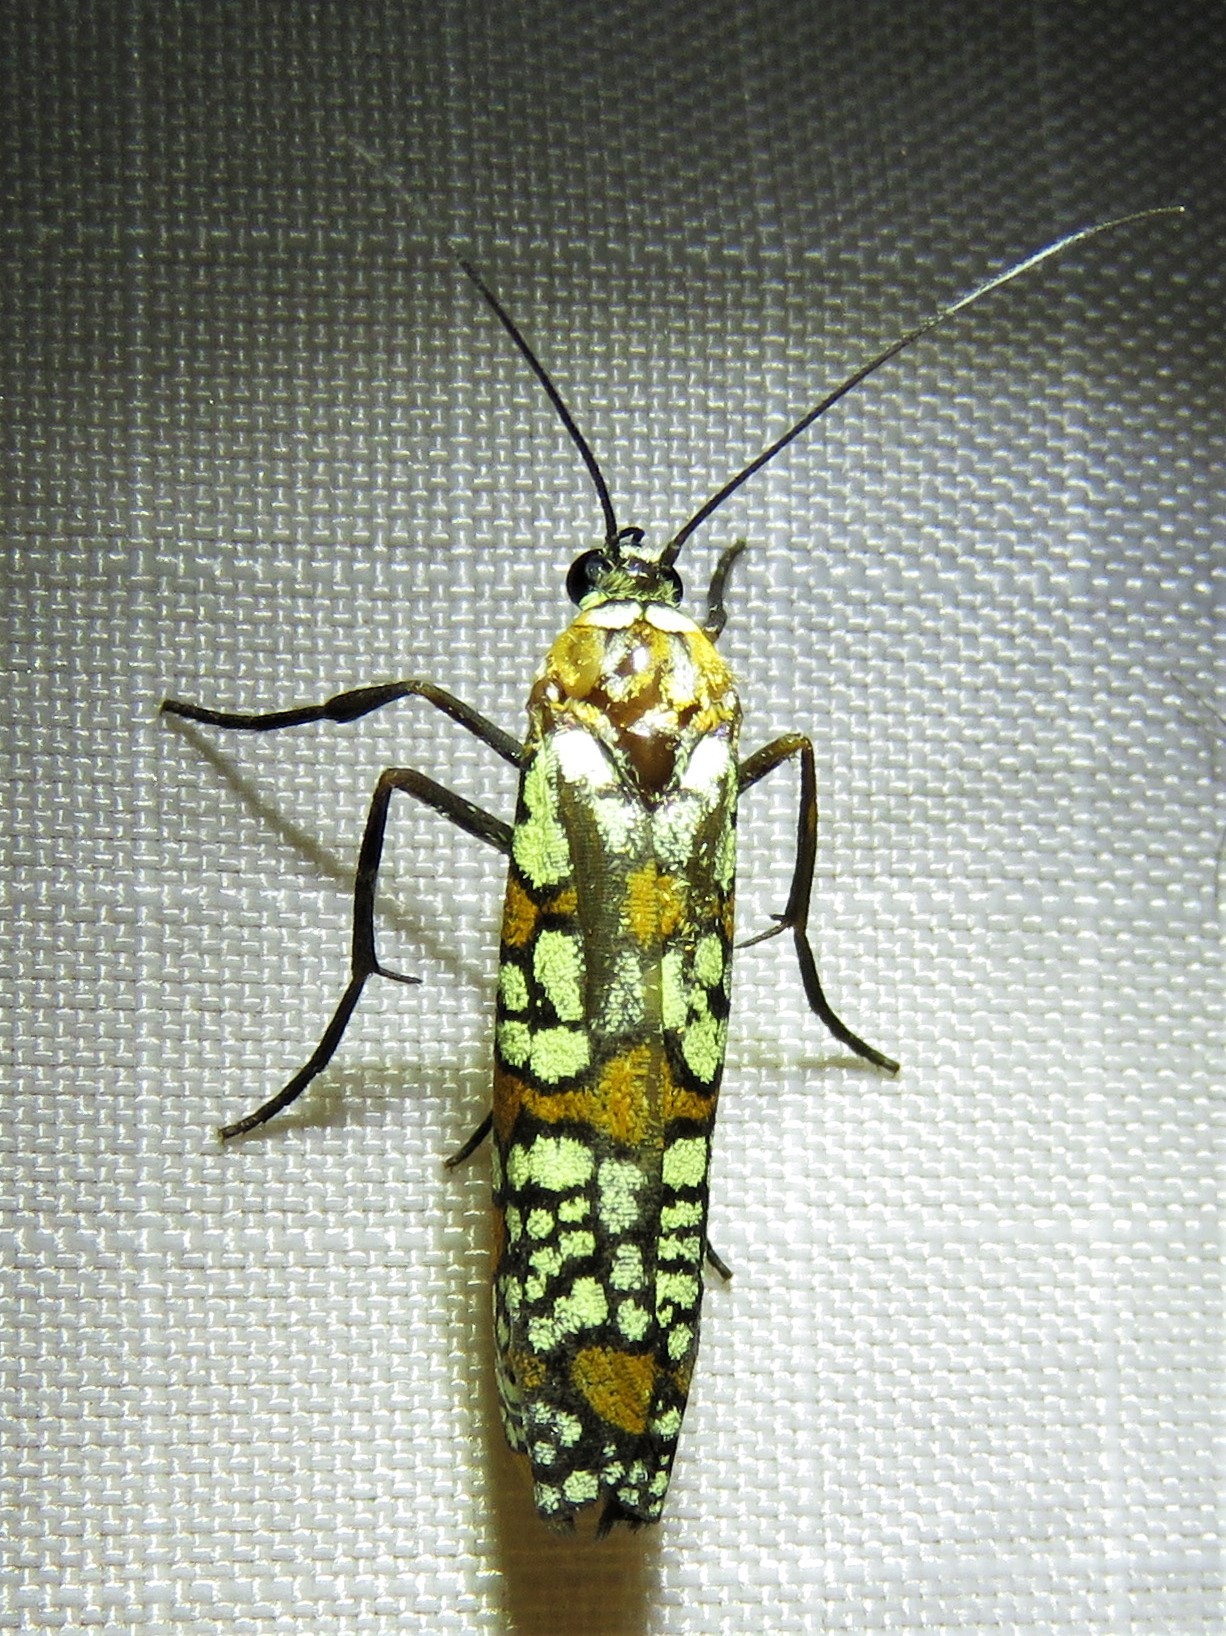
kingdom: Animalia
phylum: Arthropoda
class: Insecta
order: Lepidoptera
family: Attevidae
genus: Atteva
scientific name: Atteva punctella
